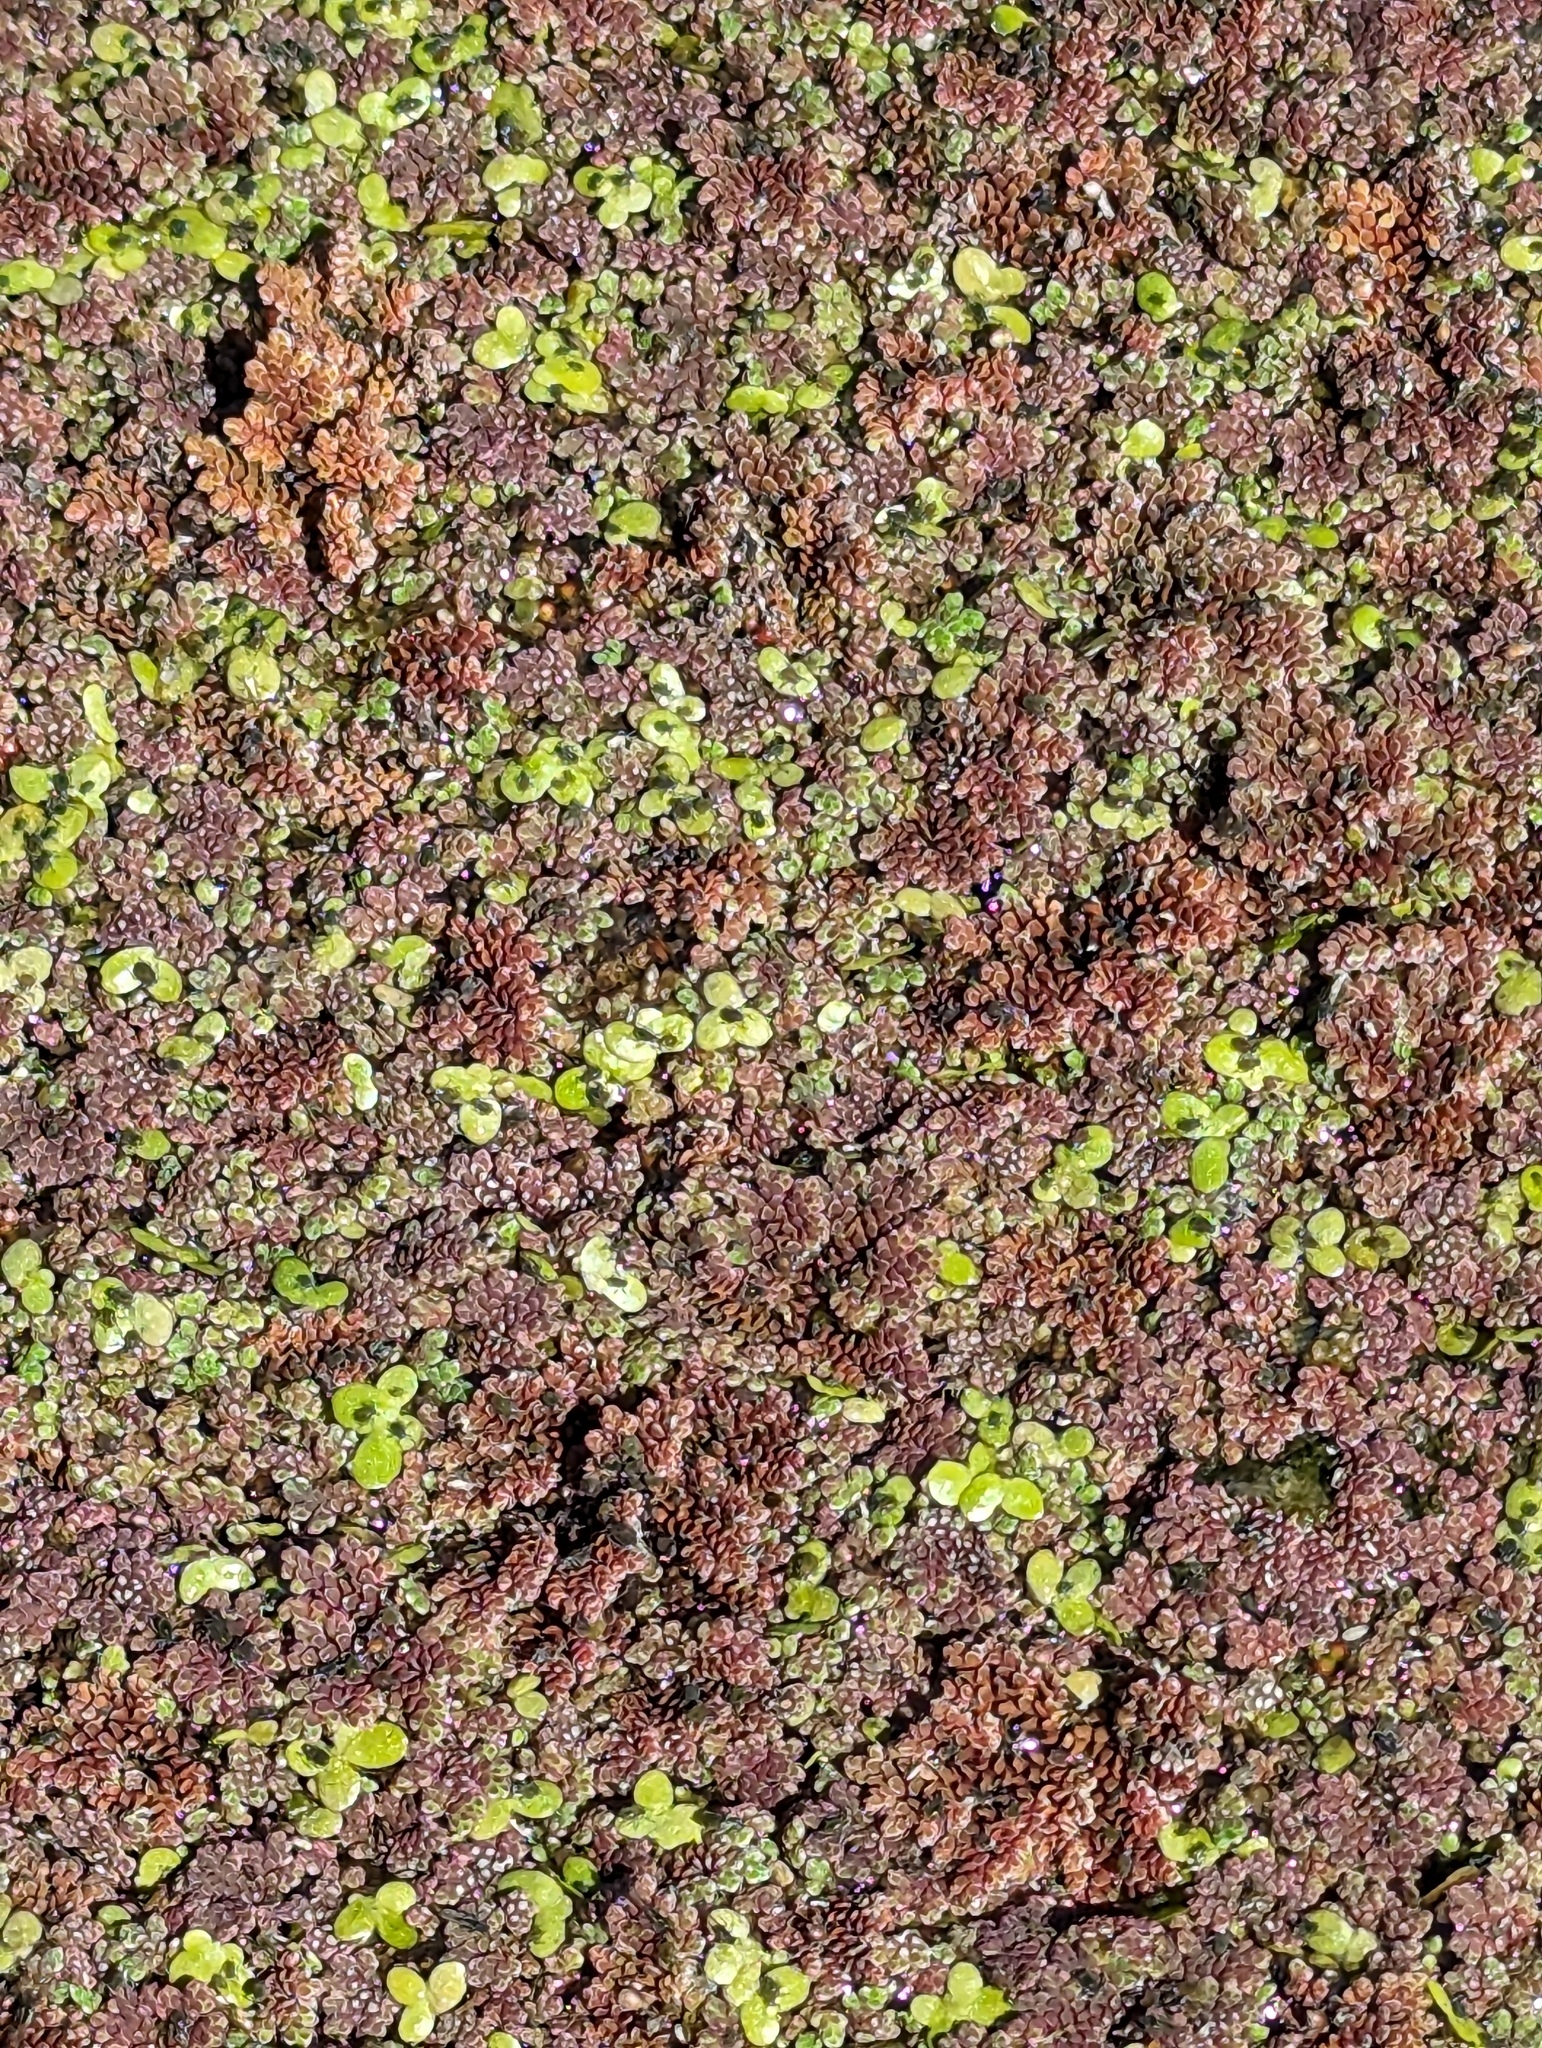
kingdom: Plantae
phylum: Tracheophyta
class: Polypodiopsida
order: Salviniales
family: Salviniaceae
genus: Azolla
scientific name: Azolla filiculoides
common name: Water fern
